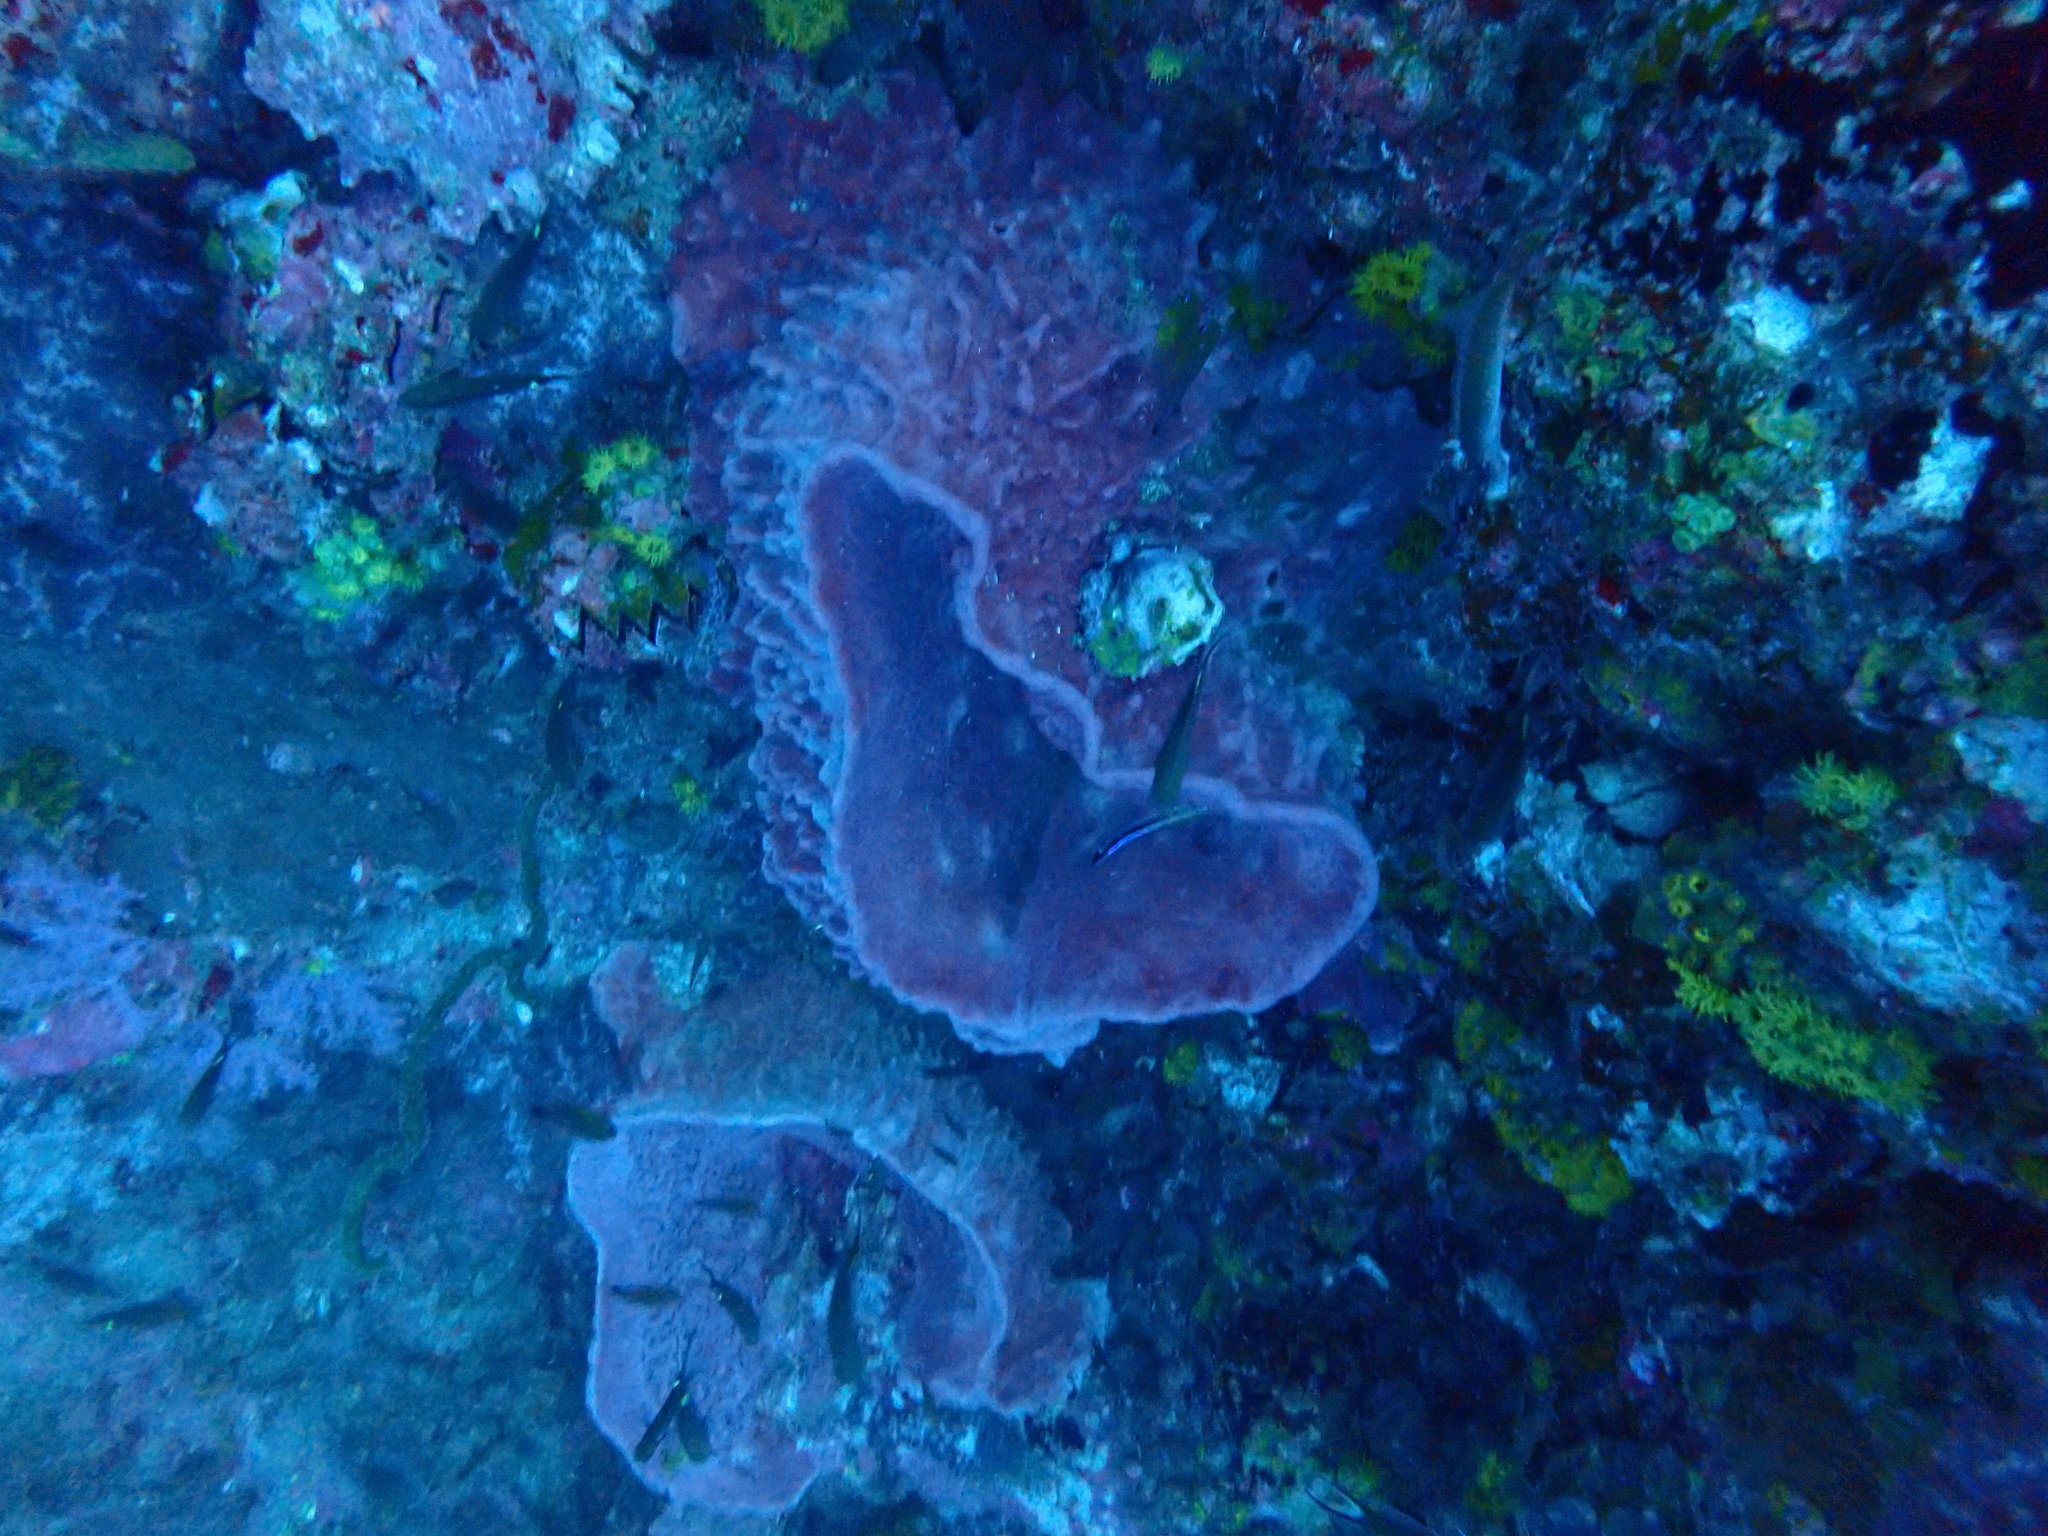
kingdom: Animalia
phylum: Porifera
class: Demospongiae
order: Haplosclerida
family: Petrosiidae
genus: Xestospongia
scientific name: Xestospongia testudinaria
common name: Barrel sponge
